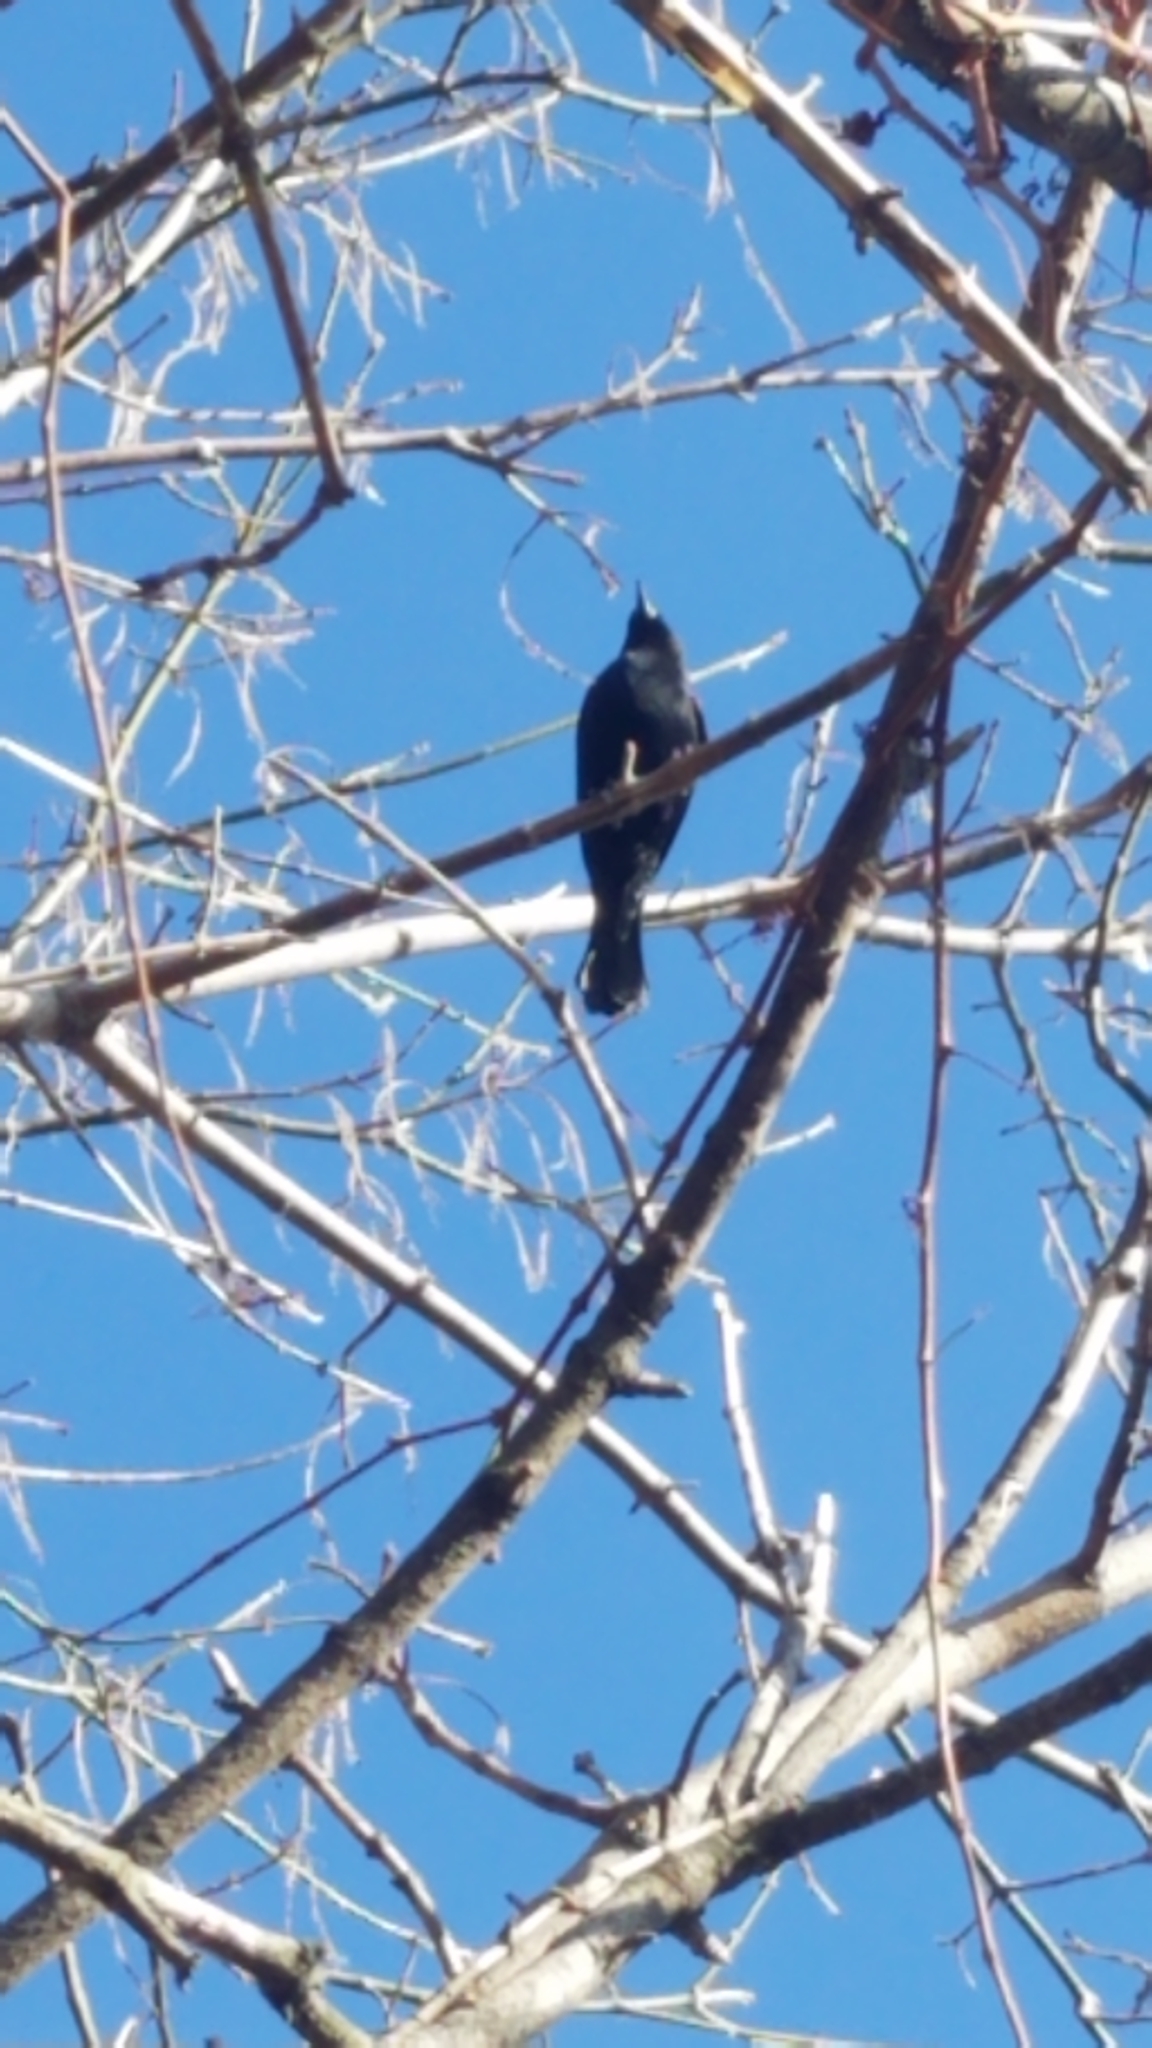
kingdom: Animalia
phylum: Chordata
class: Aves
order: Passeriformes
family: Icteridae
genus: Agelaius
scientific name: Agelaius phoeniceus
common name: Red-winged blackbird
